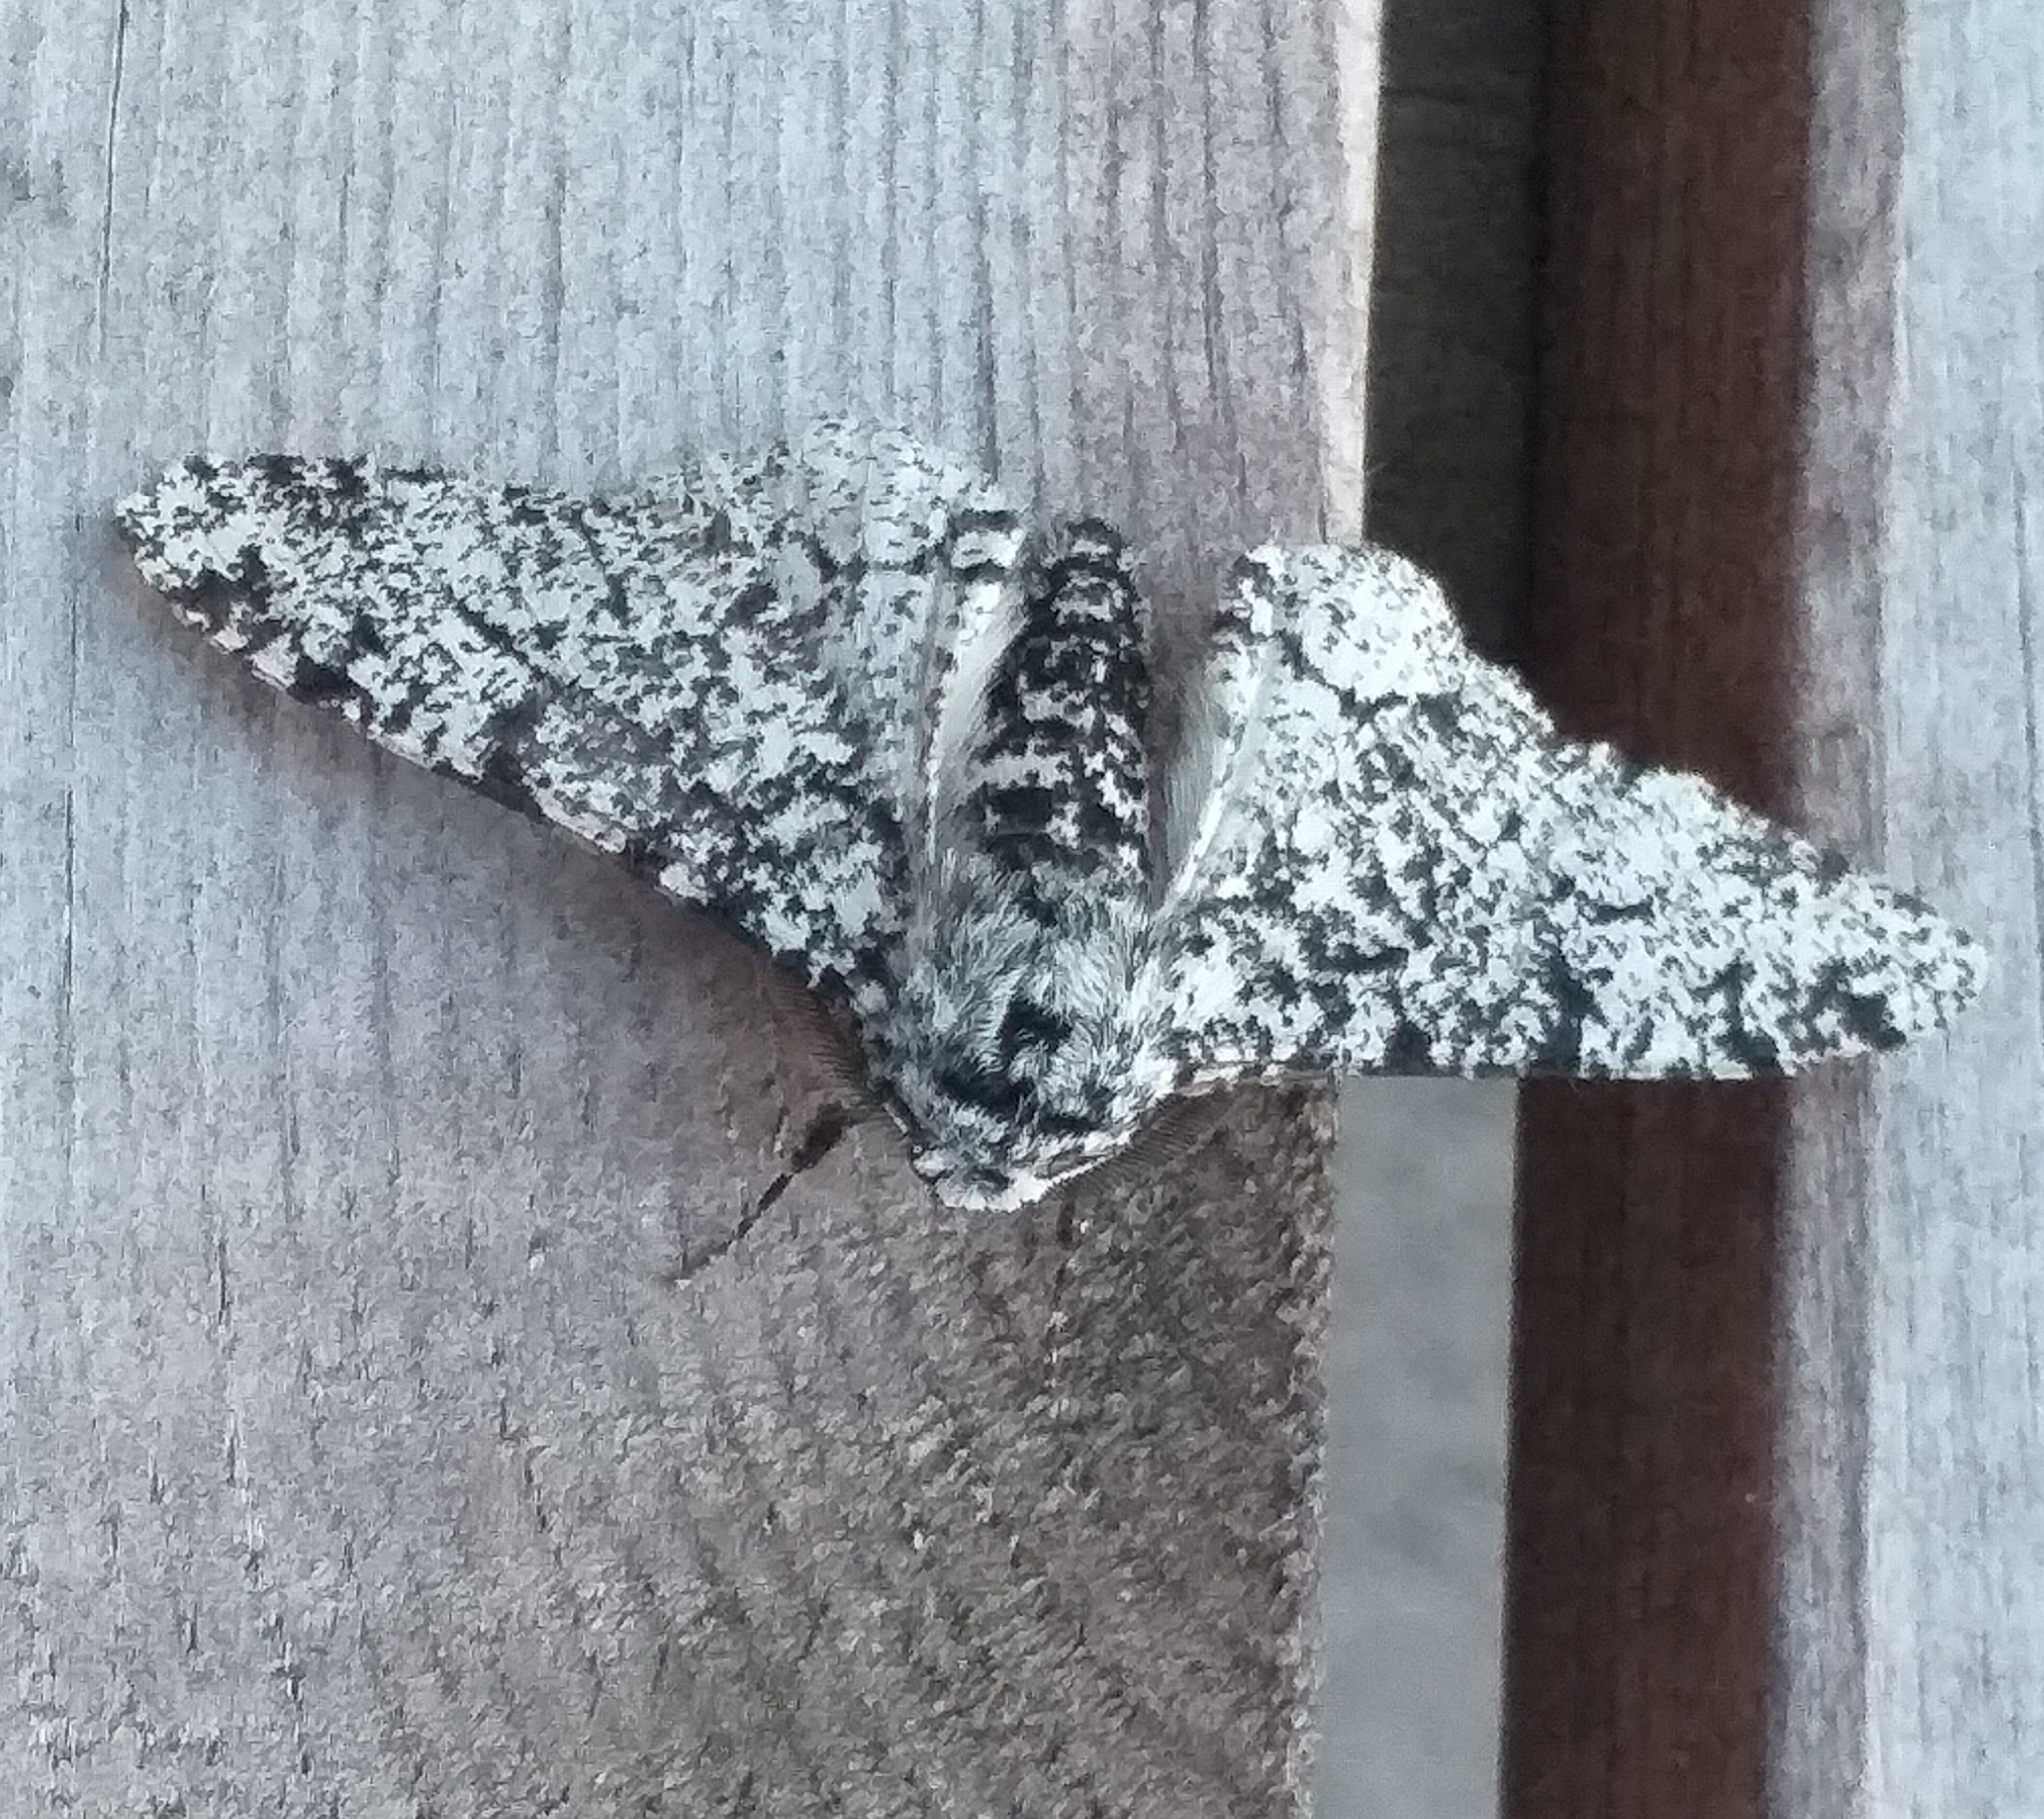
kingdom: Animalia
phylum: Arthropoda
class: Insecta
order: Lepidoptera
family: Geometridae
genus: Biston
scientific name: Biston betularia
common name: Peppered moth
